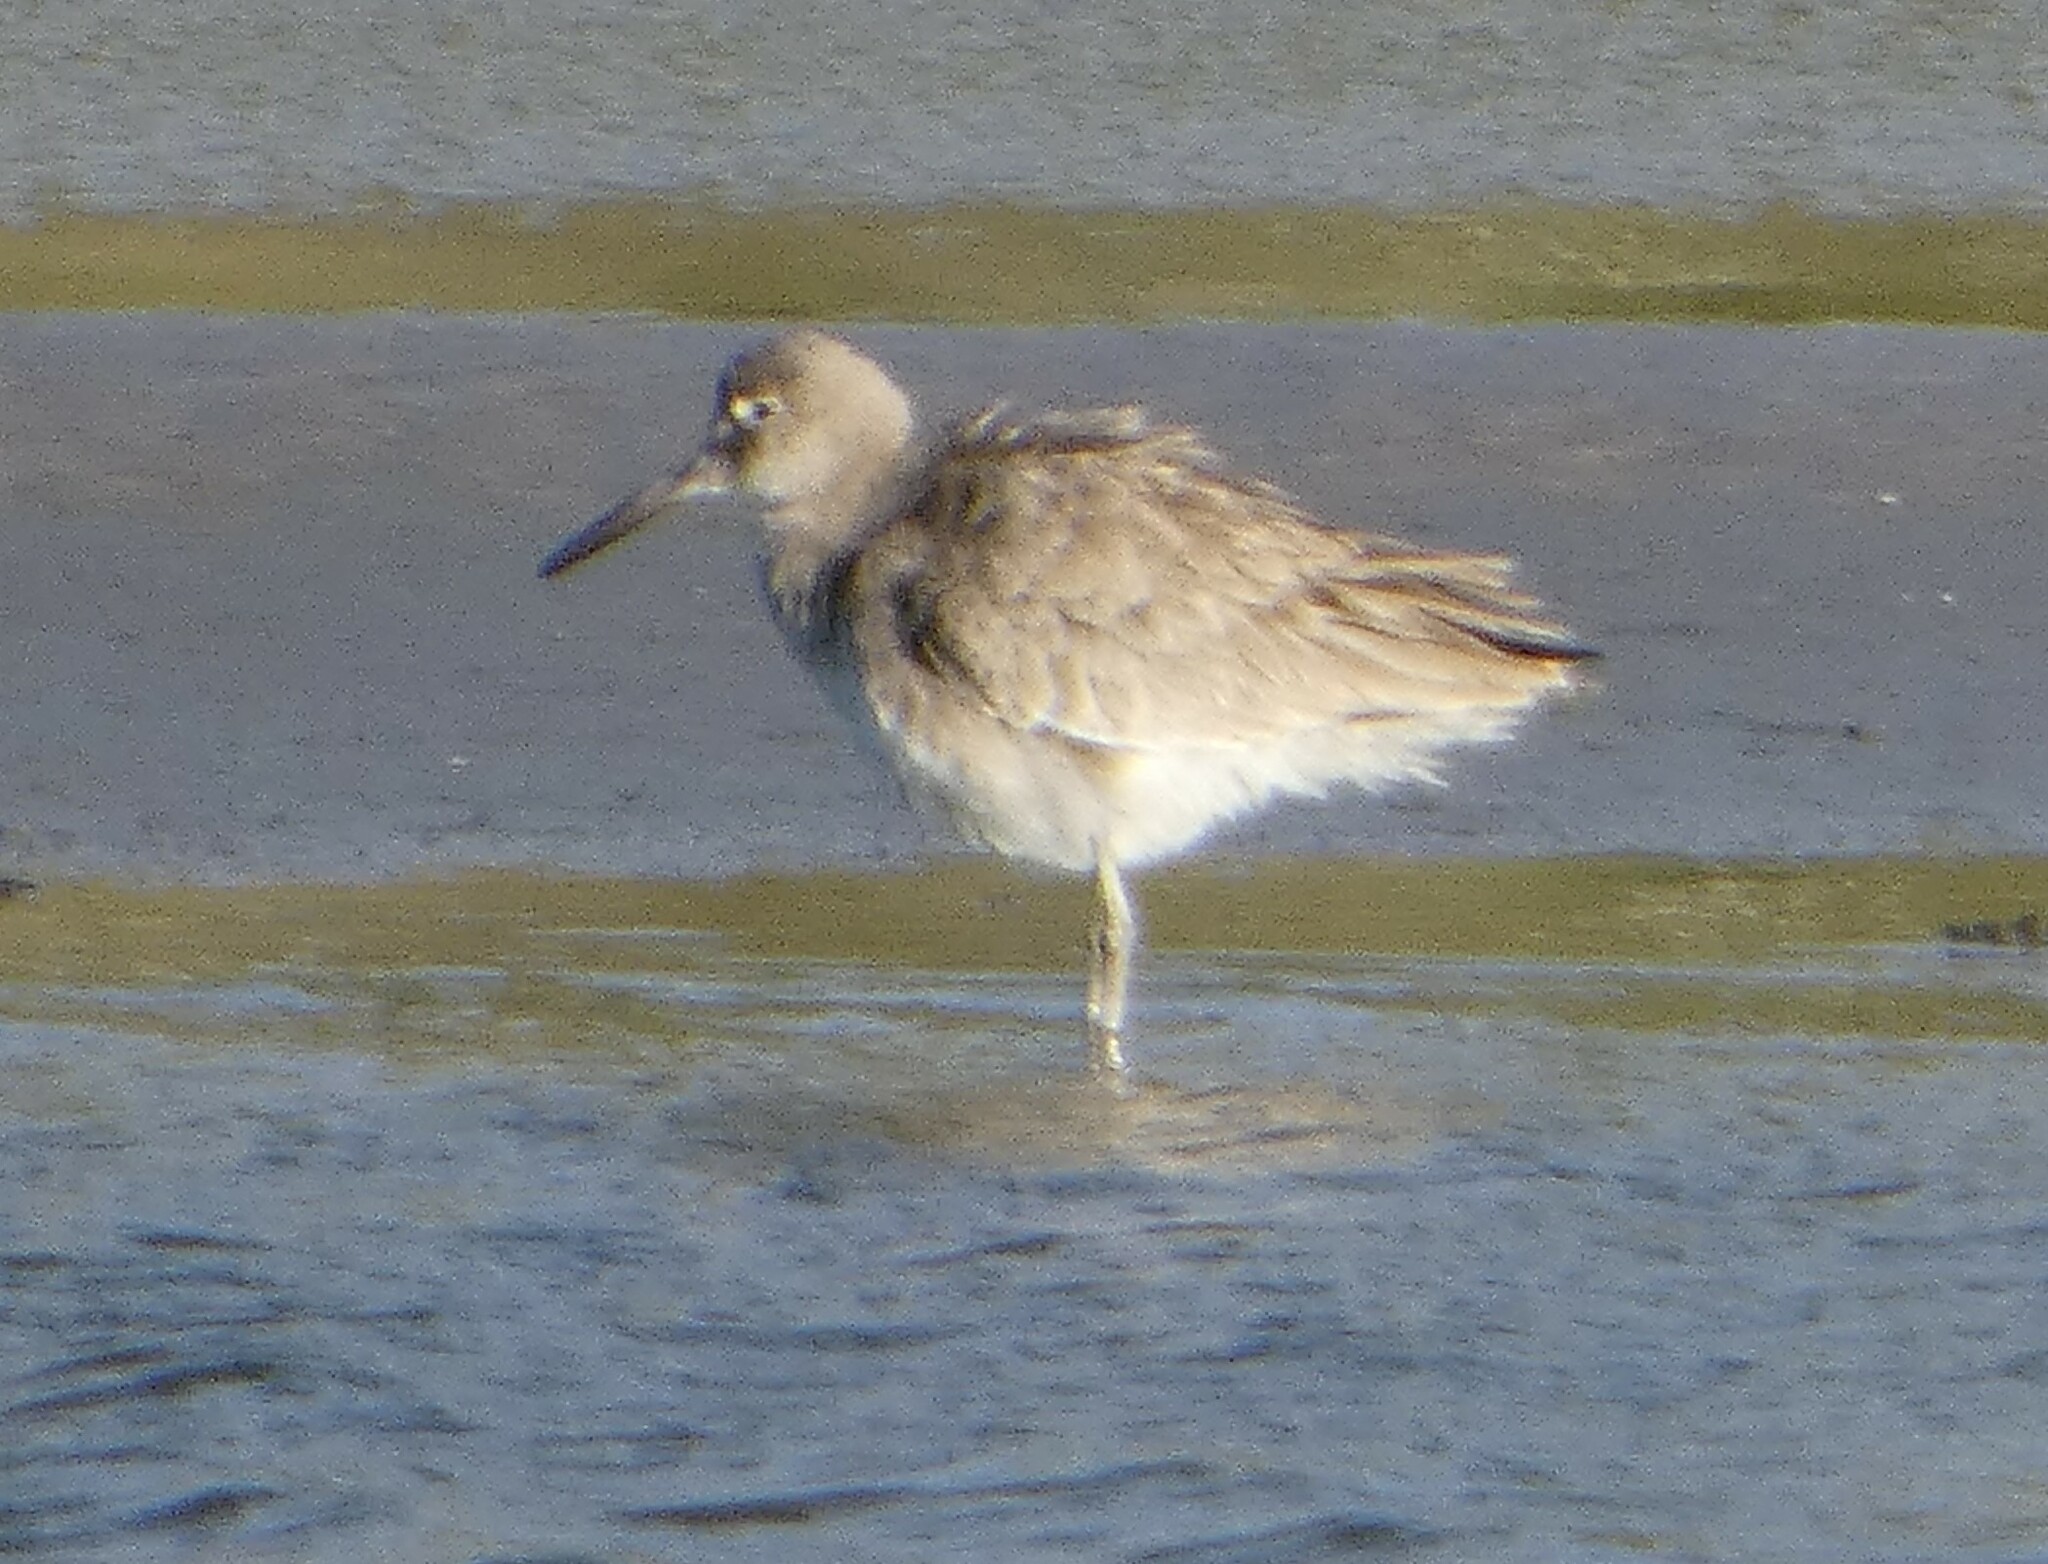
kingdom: Animalia
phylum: Chordata
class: Aves
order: Charadriiformes
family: Scolopacidae
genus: Tringa
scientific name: Tringa semipalmata
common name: Willet
